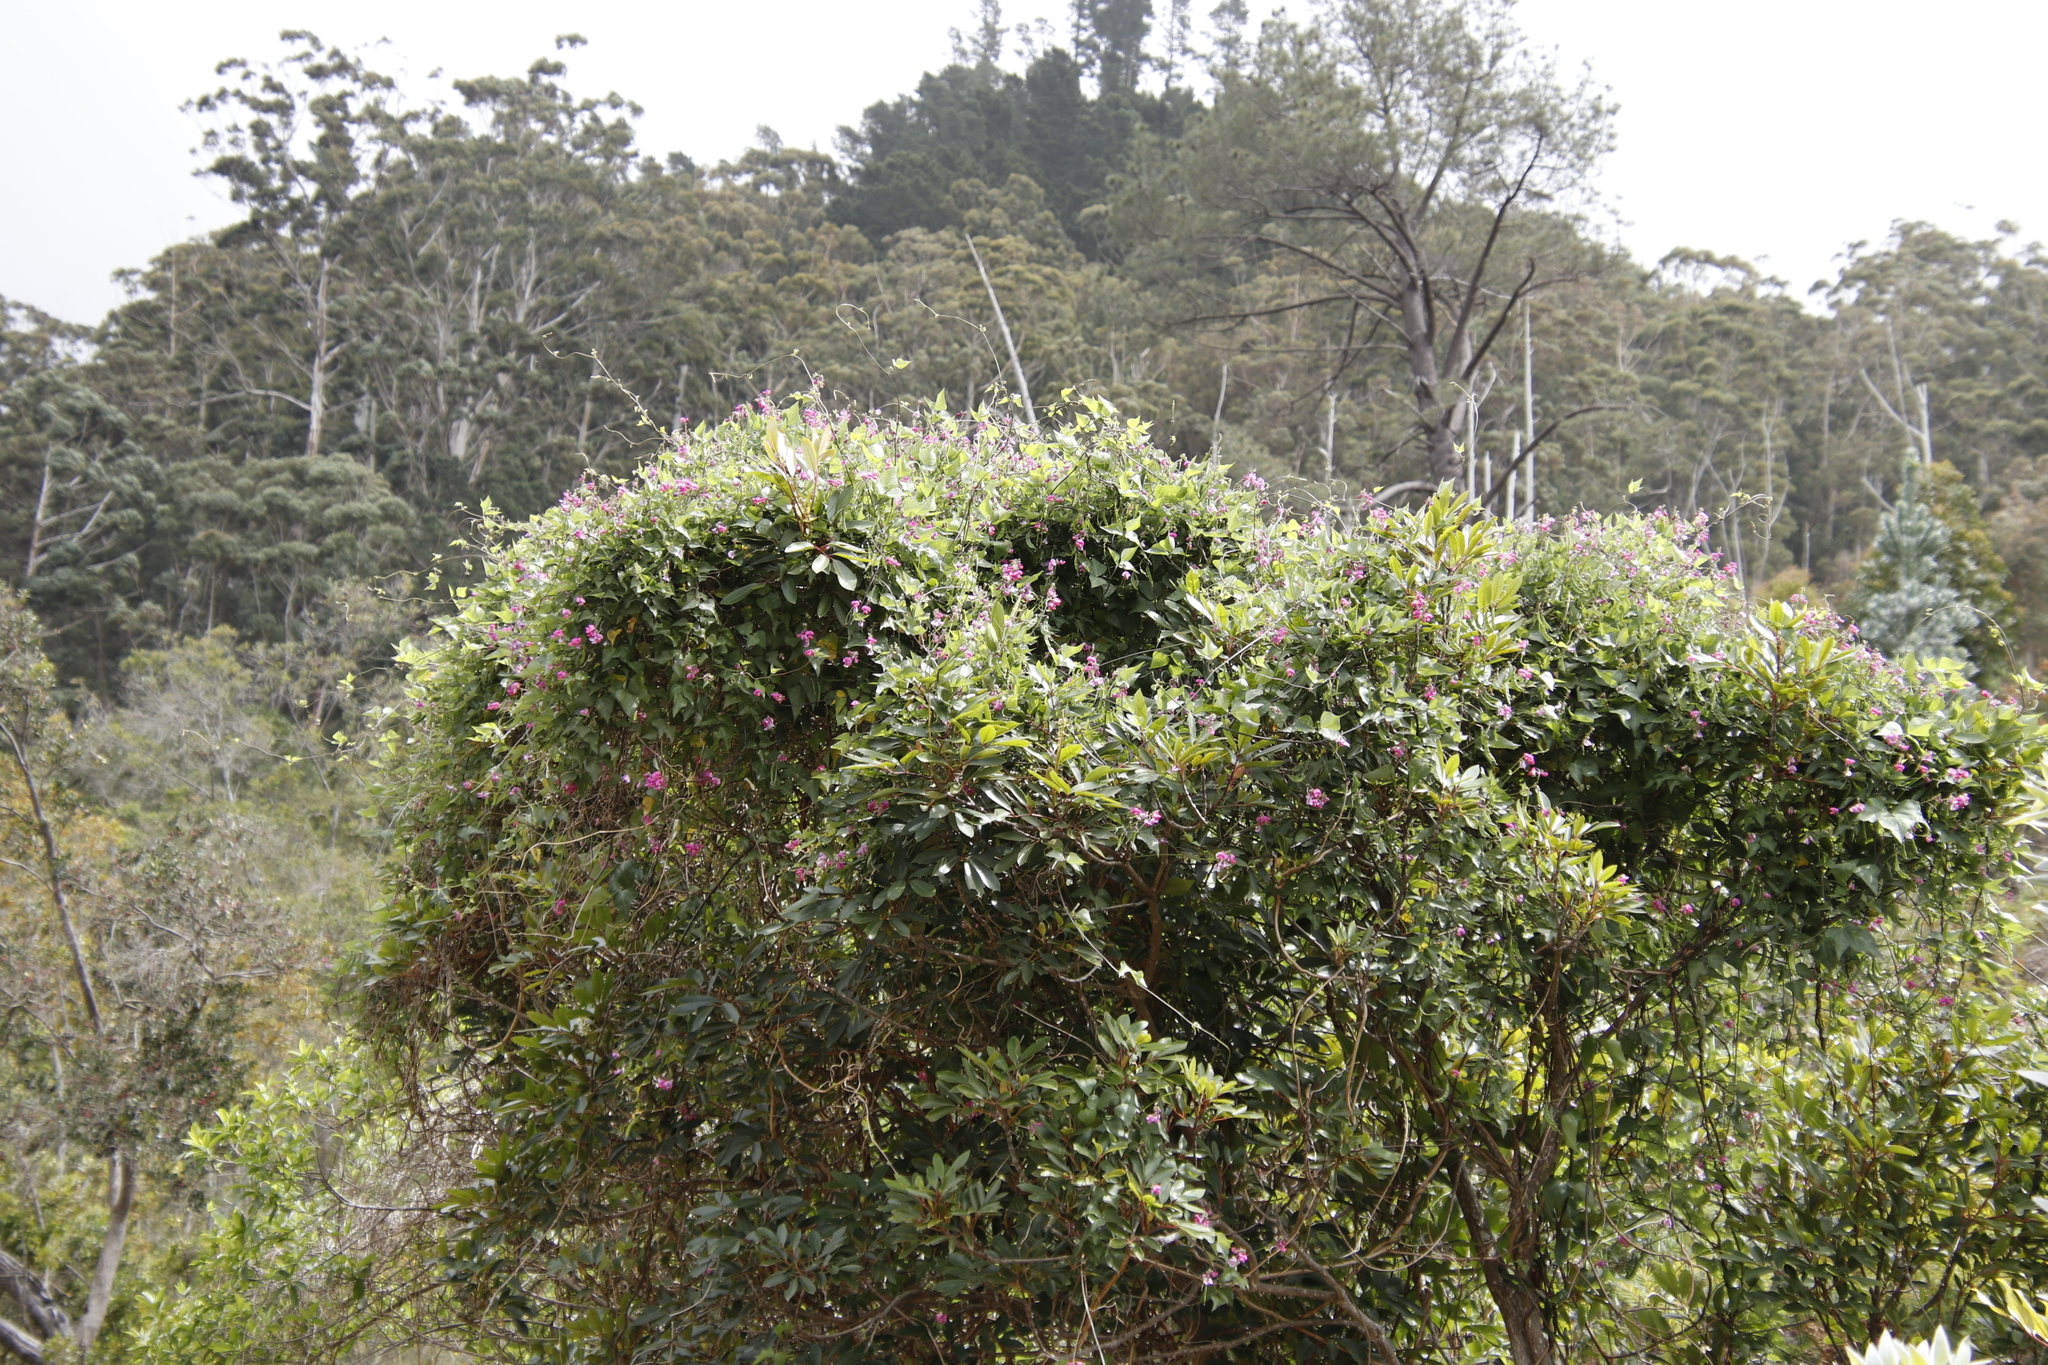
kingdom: Plantae
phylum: Tracheophyta
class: Magnoliopsida
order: Fabales
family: Fabaceae
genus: Dipogon
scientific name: Dipogon lignosus
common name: Okie bean
